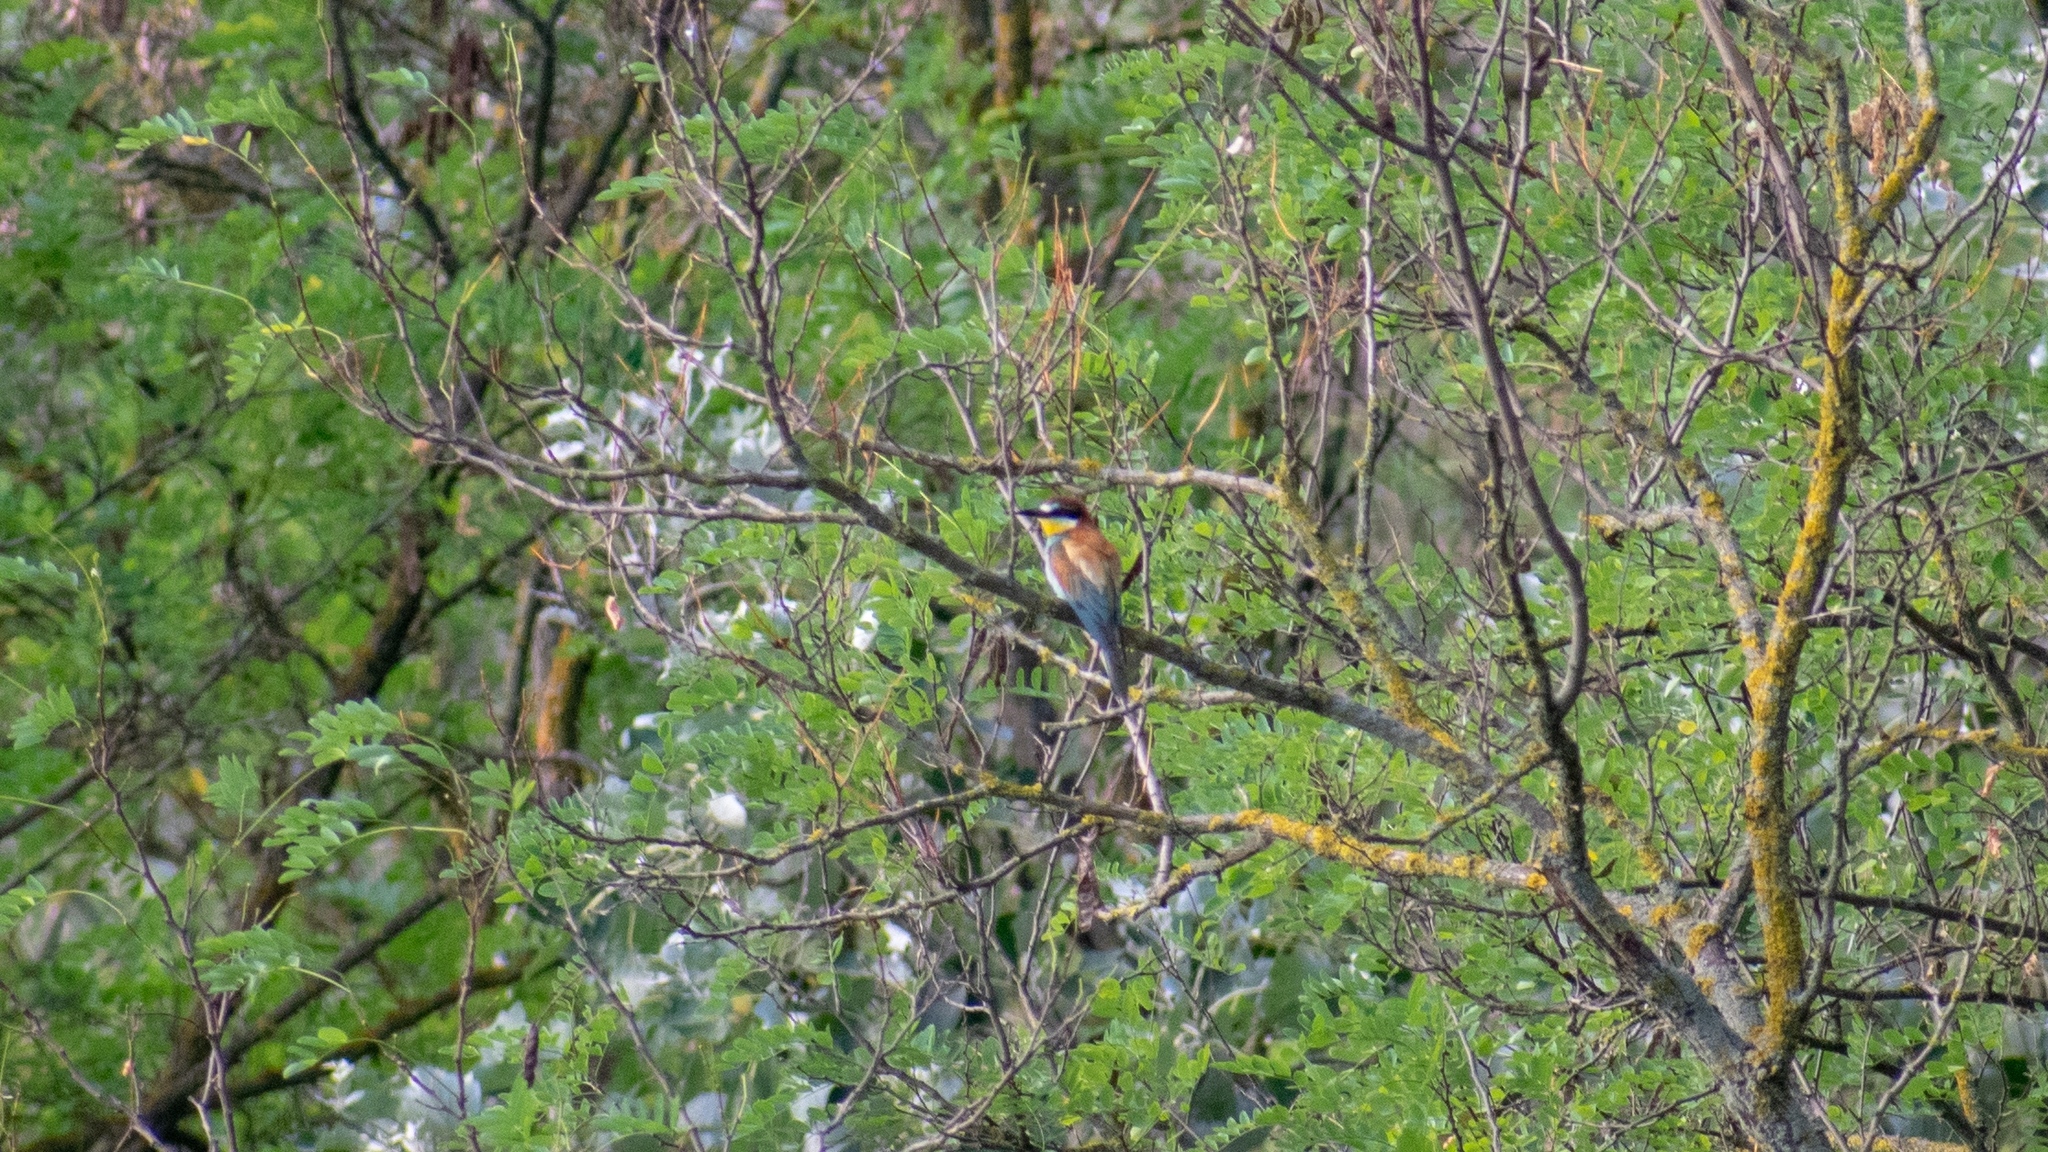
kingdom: Animalia
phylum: Chordata
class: Aves
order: Coraciiformes
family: Meropidae
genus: Merops
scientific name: Merops apiaster
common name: European bee-eater
